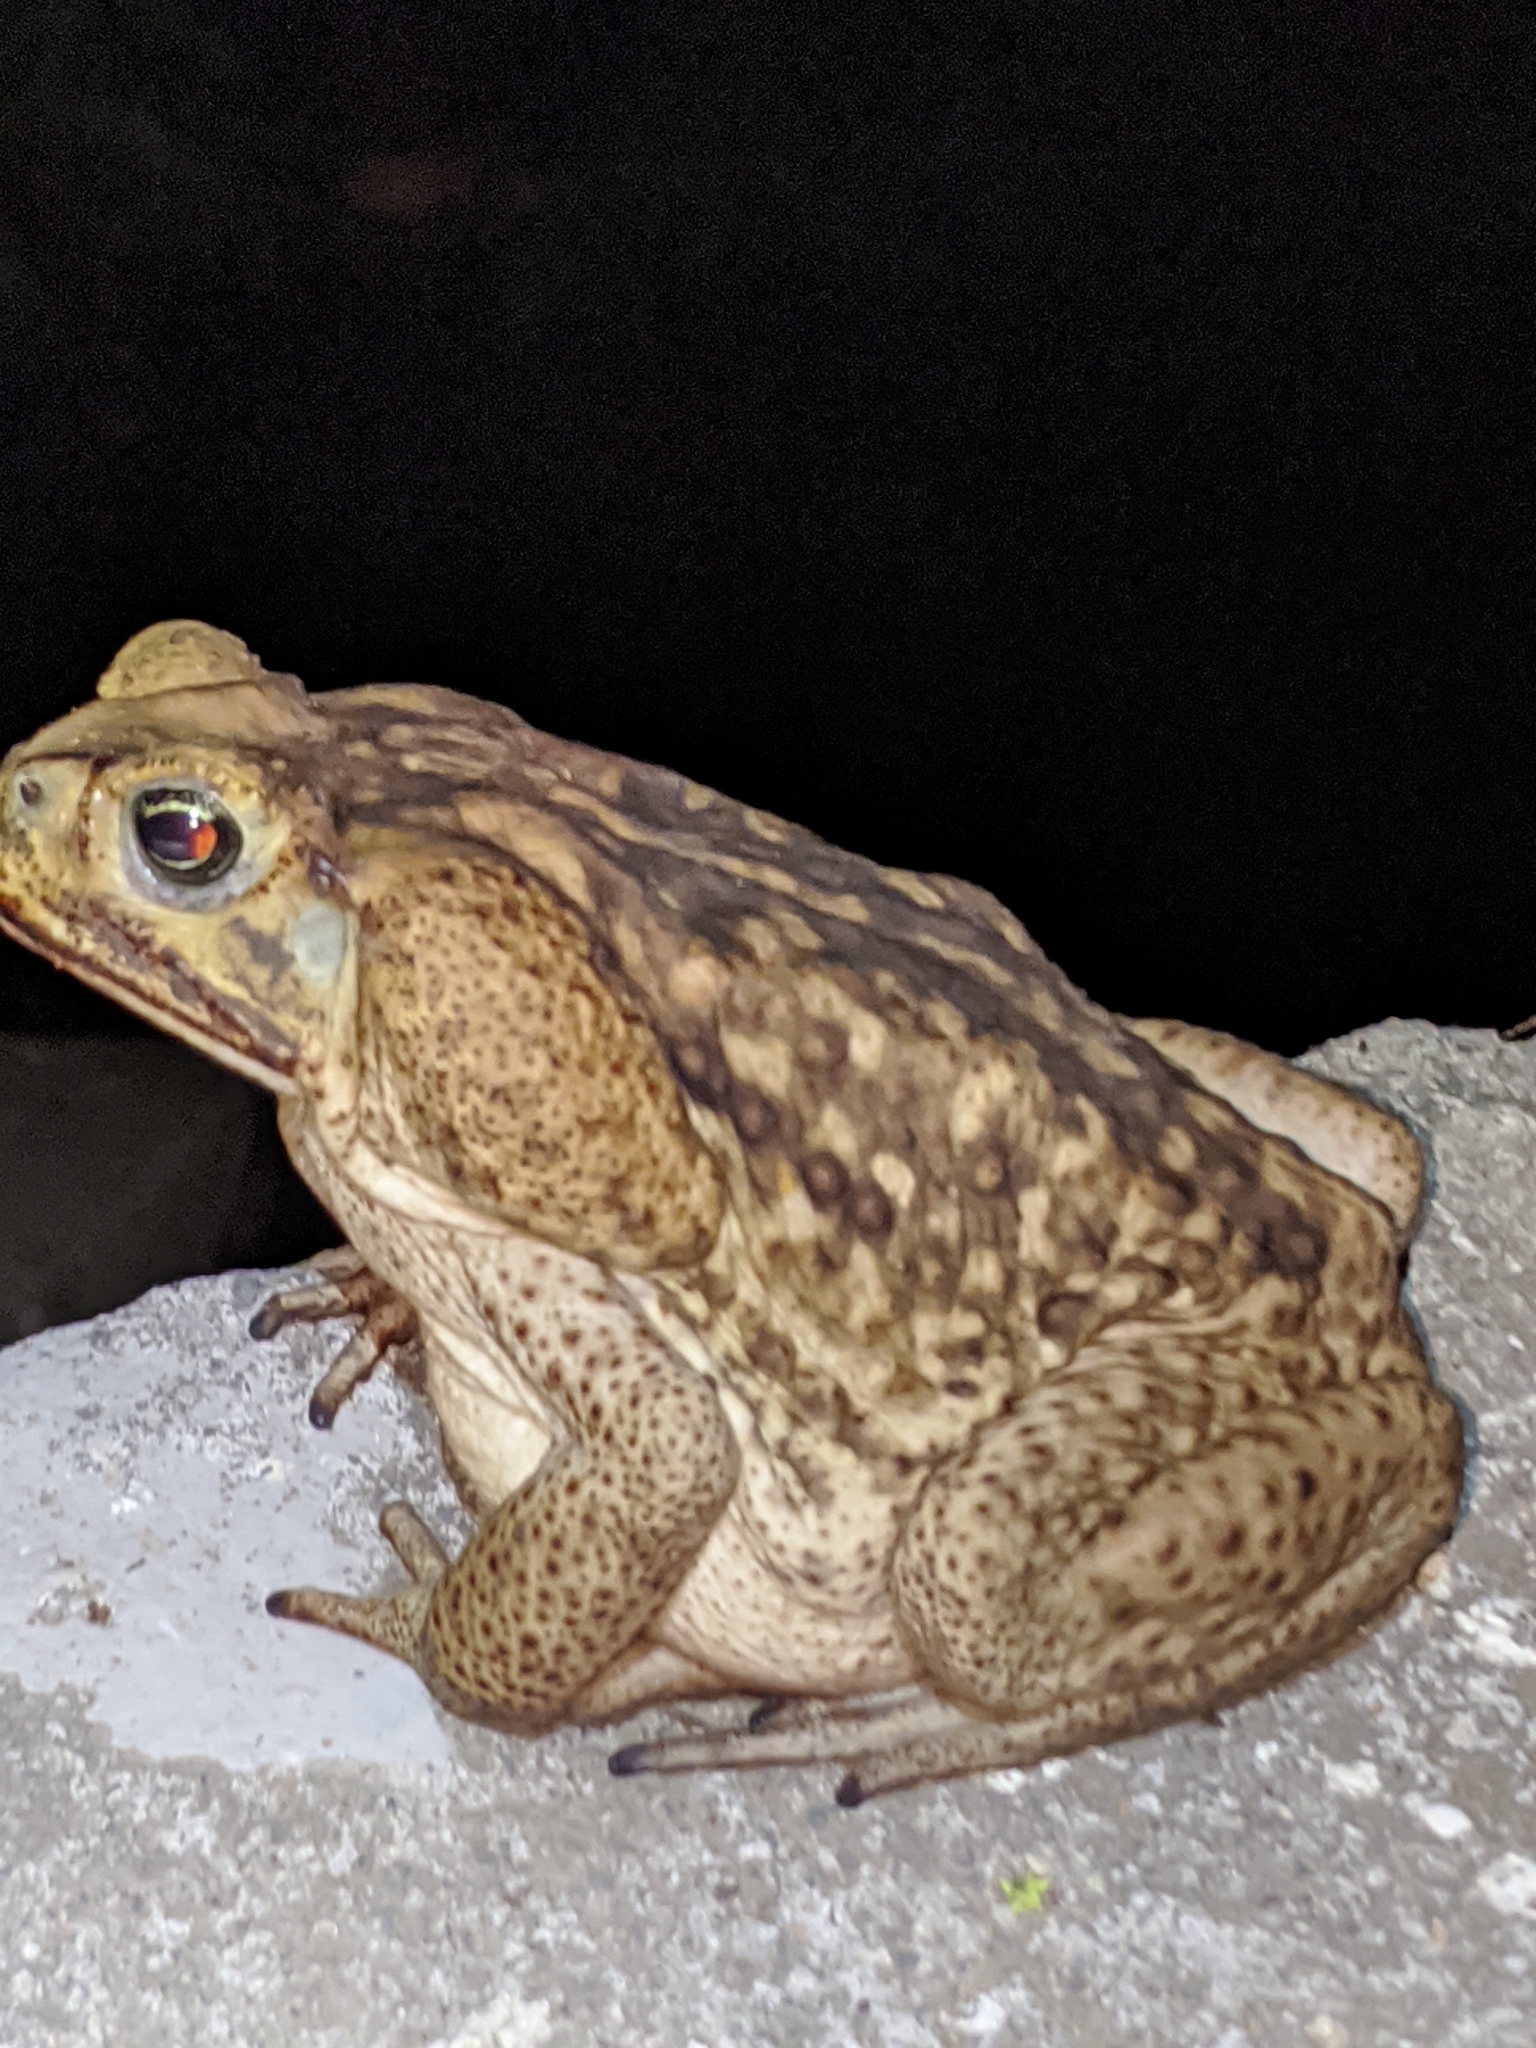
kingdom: Animalia
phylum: Chordata
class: Amphibia
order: Anura
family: Bufonidae
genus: Rhinella
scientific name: Rhinella horribilis
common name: Mesoamerican cane toad
